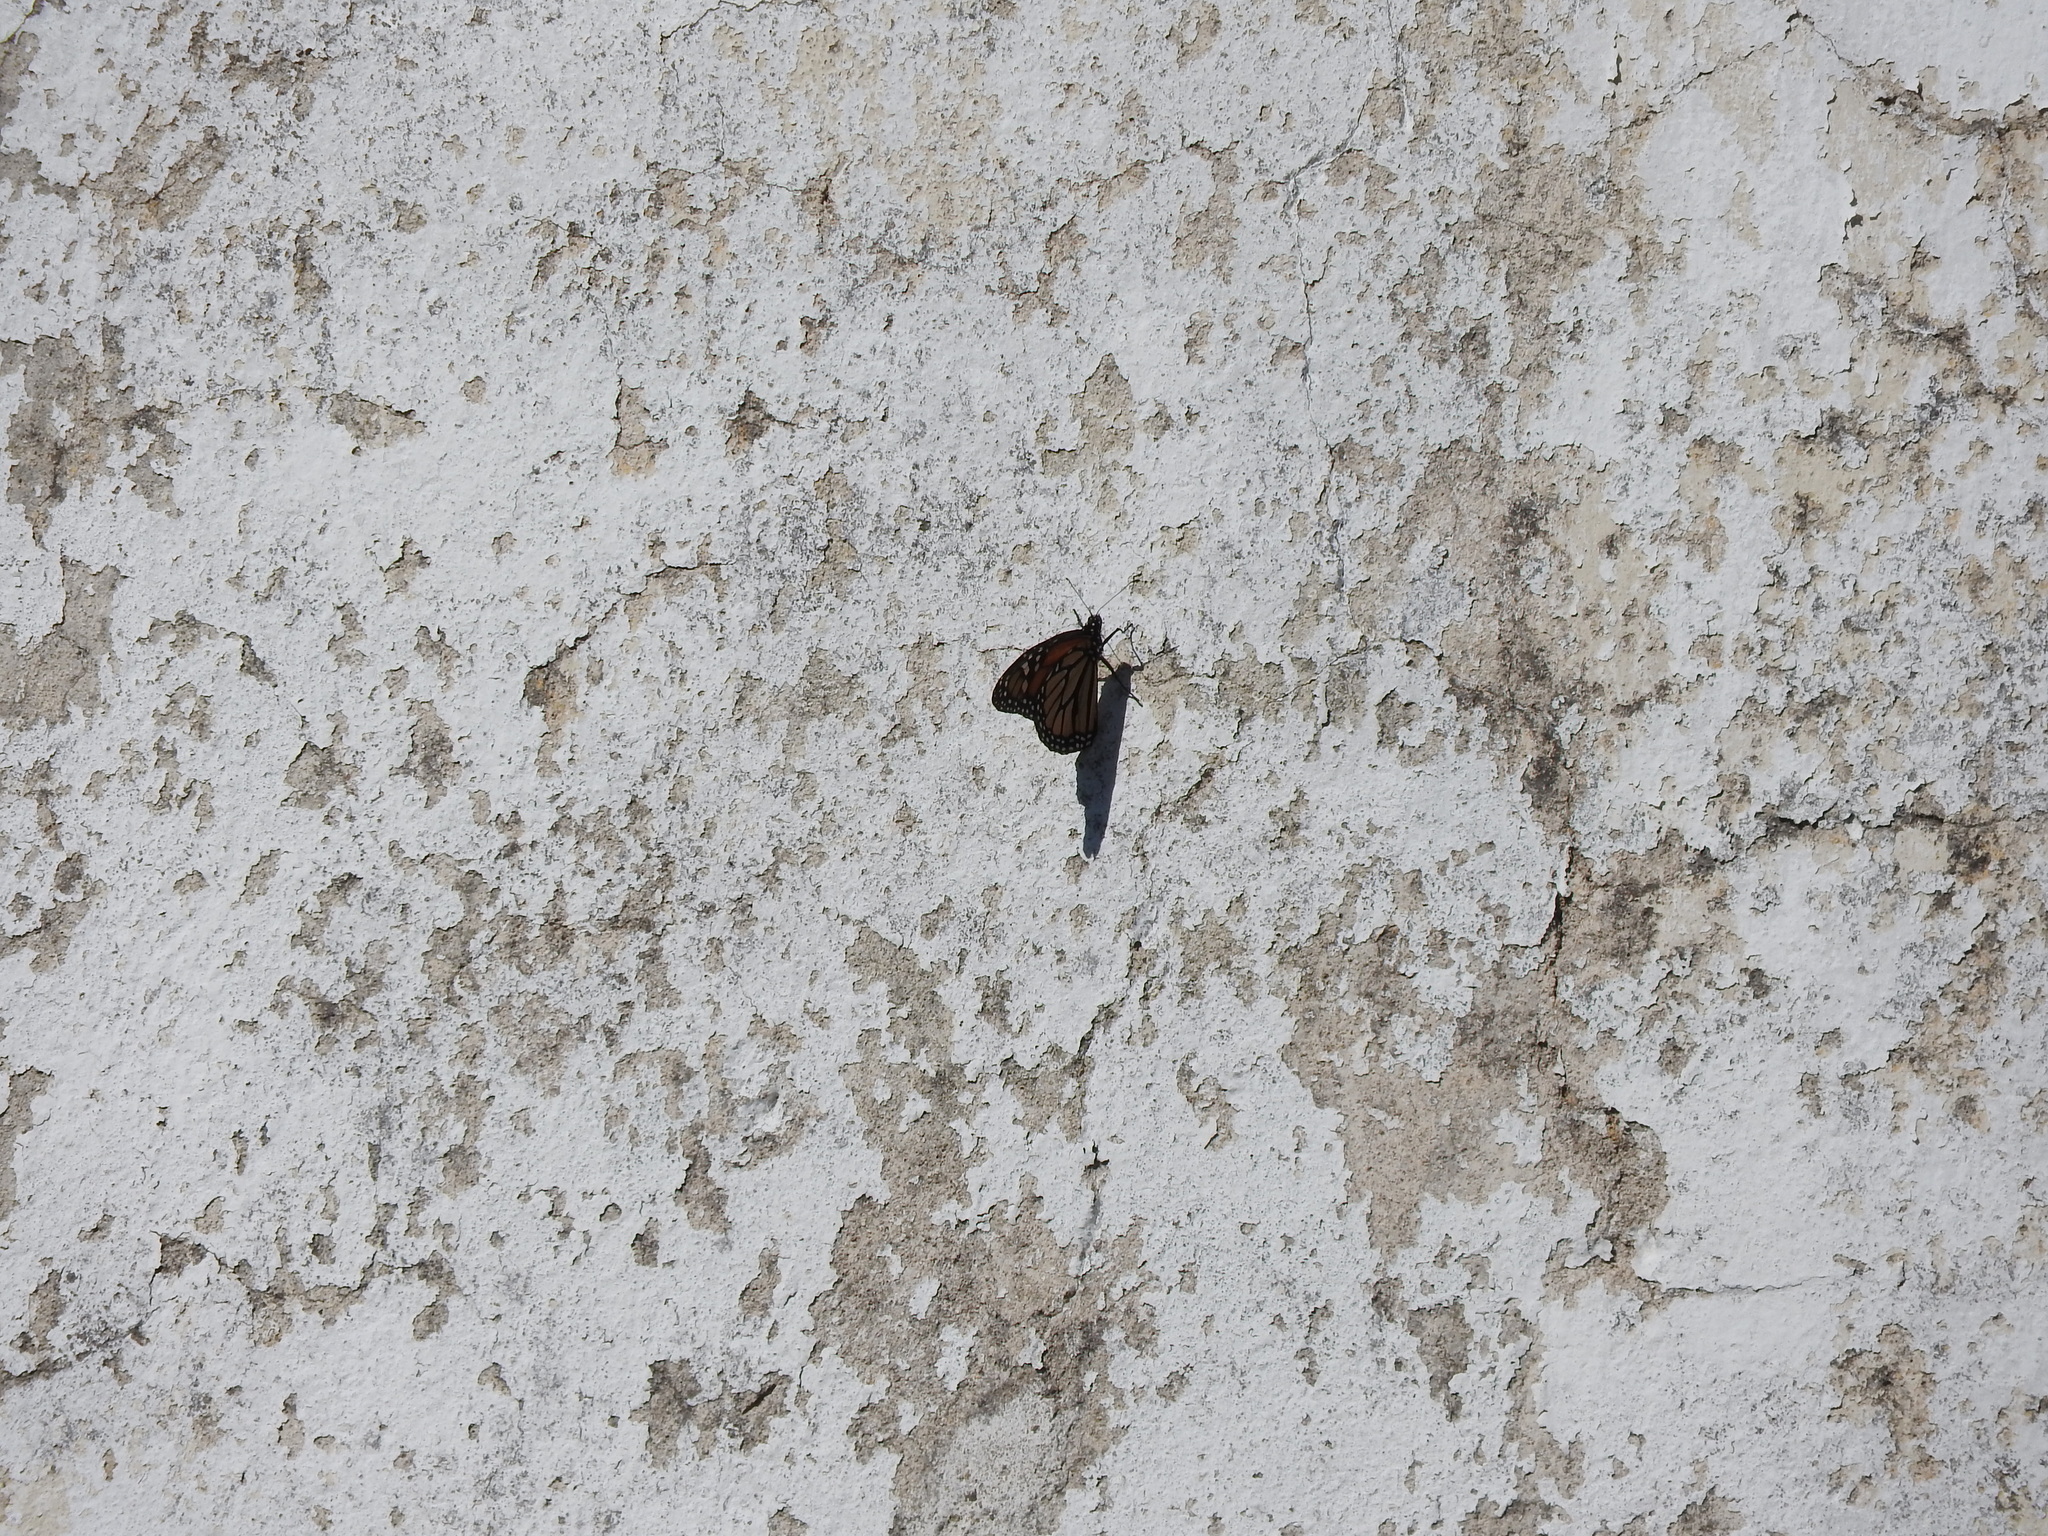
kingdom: Animalia
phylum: Arthropoda
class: Insecta
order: Lepidoptera
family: Nymphalidae
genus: Danaus
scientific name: Danaus plexippus
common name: Monarch
